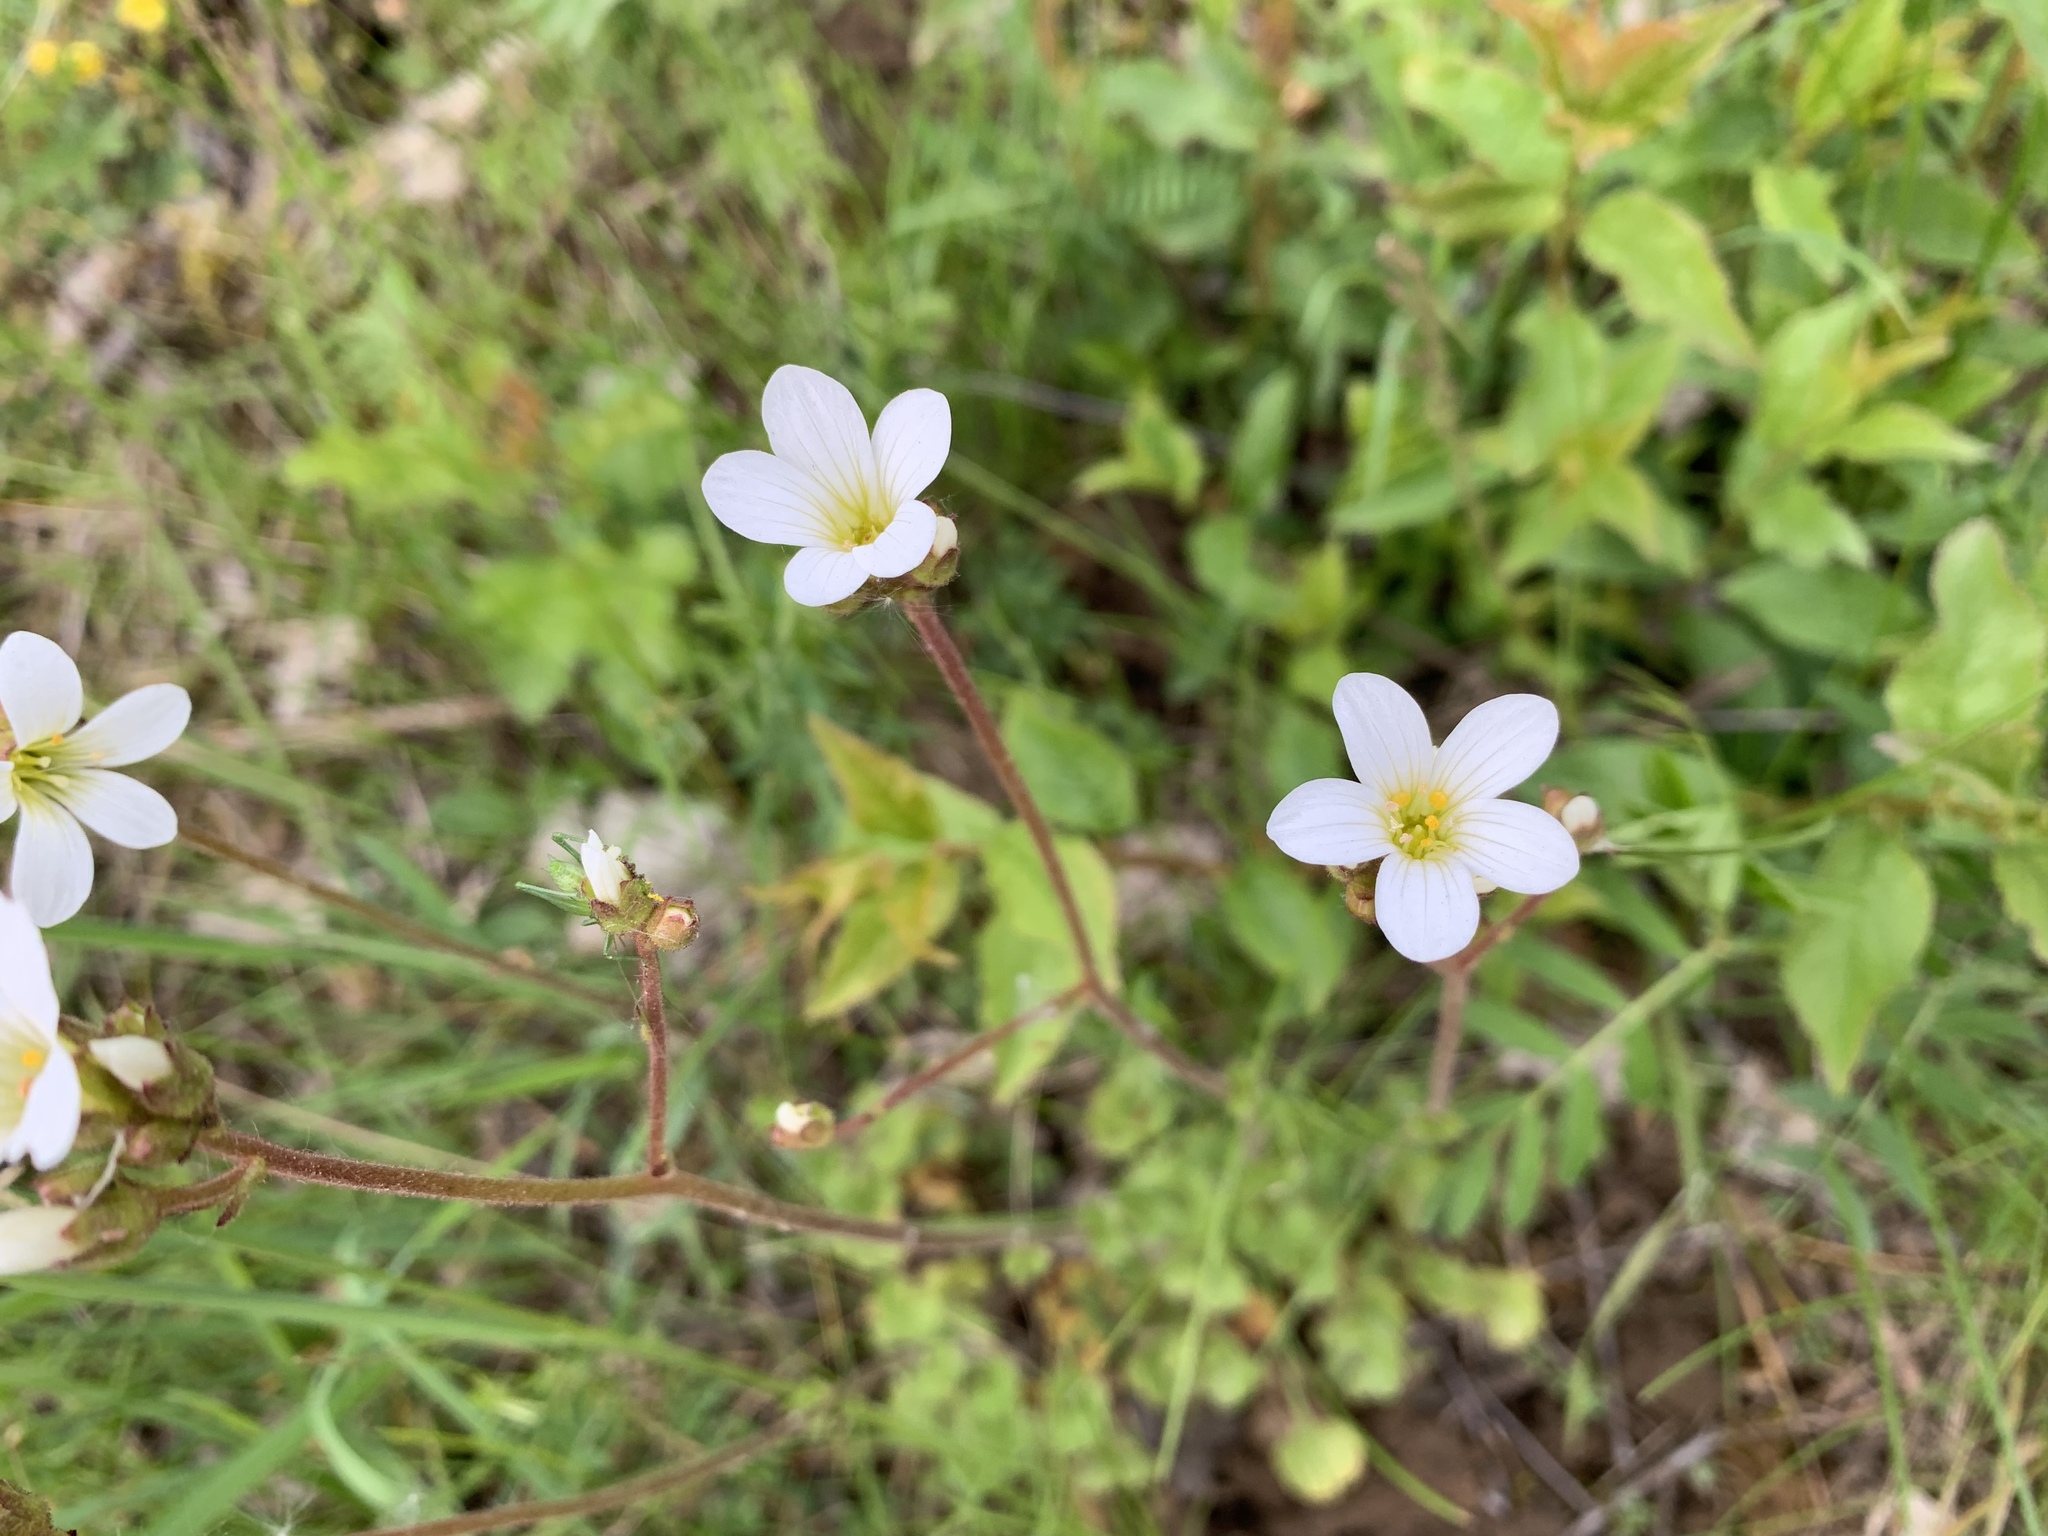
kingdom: Plantae
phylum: Tracheophyta
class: Magnoliopsida
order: Saxifragales
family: Saxifragaceae
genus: Saxifraga
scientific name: Saxifraga granulata
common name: Meadow saxifrage
